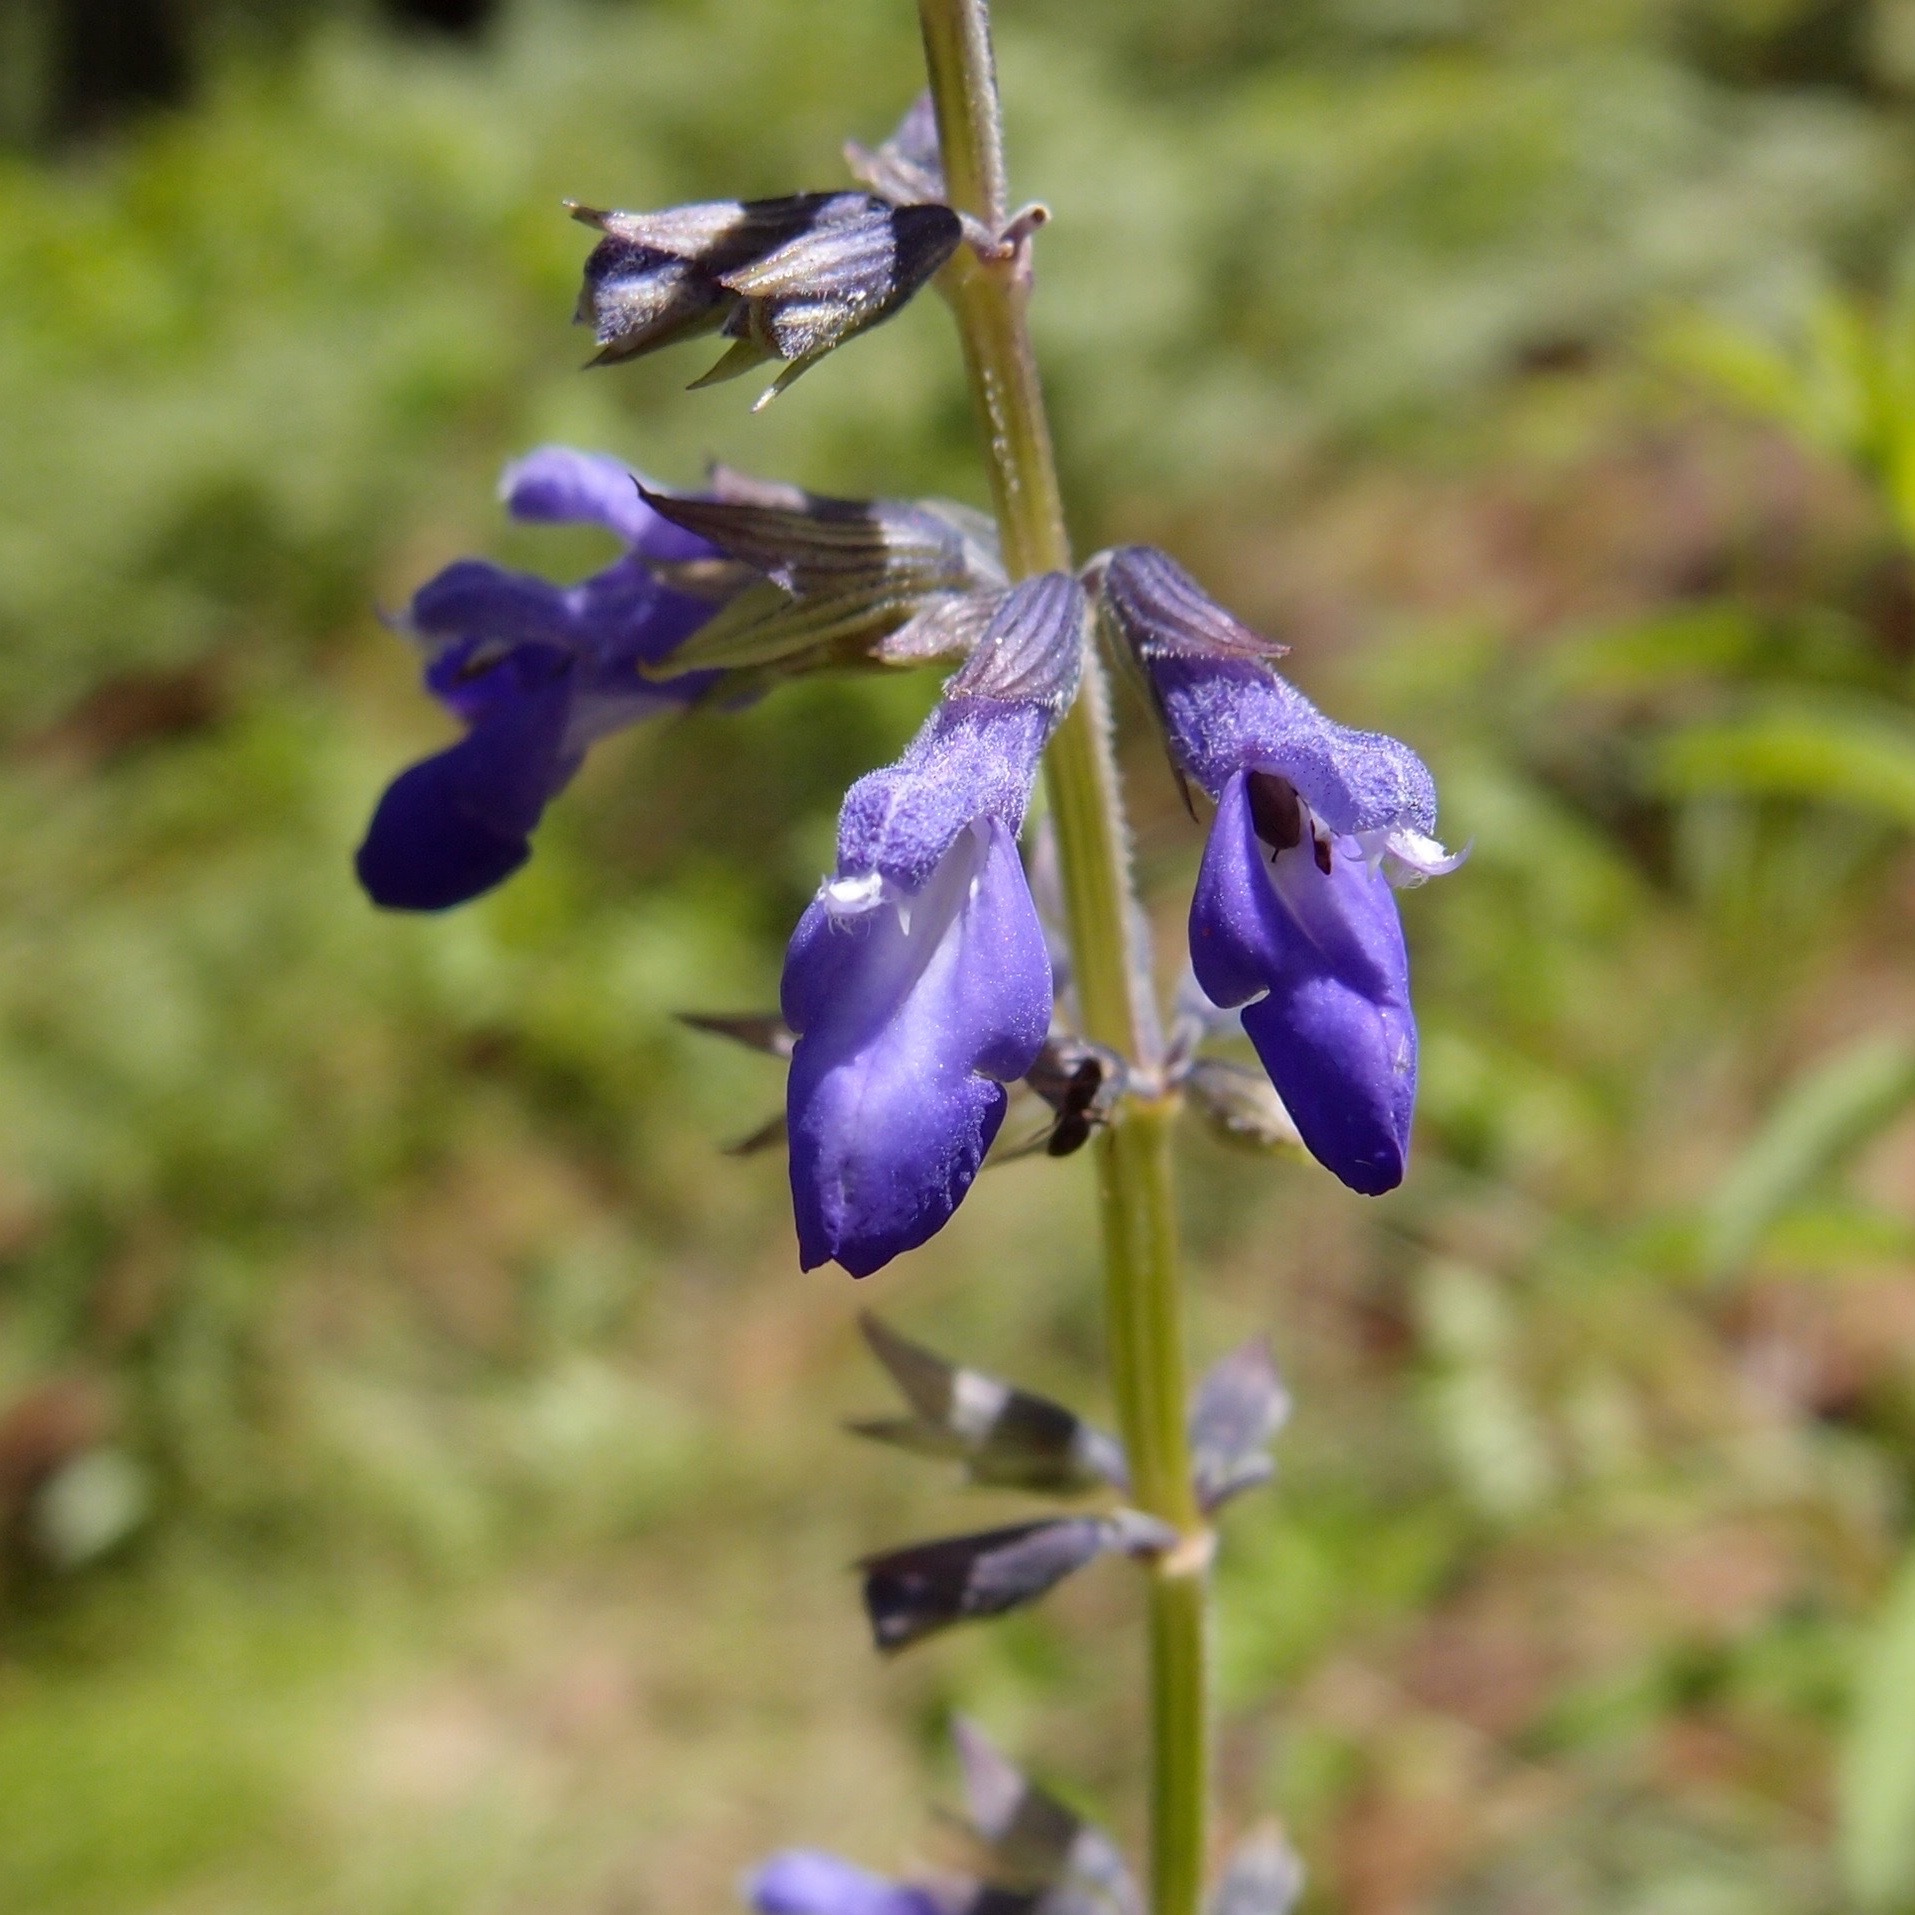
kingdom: Plantae
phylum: Tracheophyta
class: Magnoliopsida
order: Lamiales
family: Lamiaceae
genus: Salvia
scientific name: Salvia arizonica
